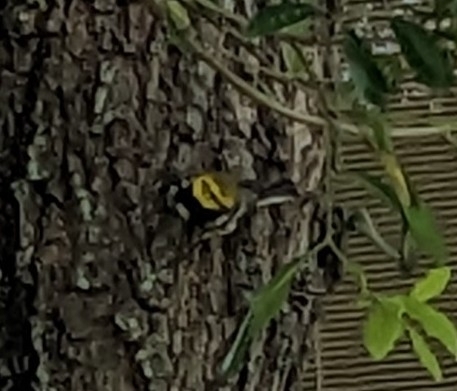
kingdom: Animalia
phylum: Chordata
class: Aves
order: Passeriformes
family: Parulidae
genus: Setophaga
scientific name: Setophaga virens
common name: Black-throated green warbler
